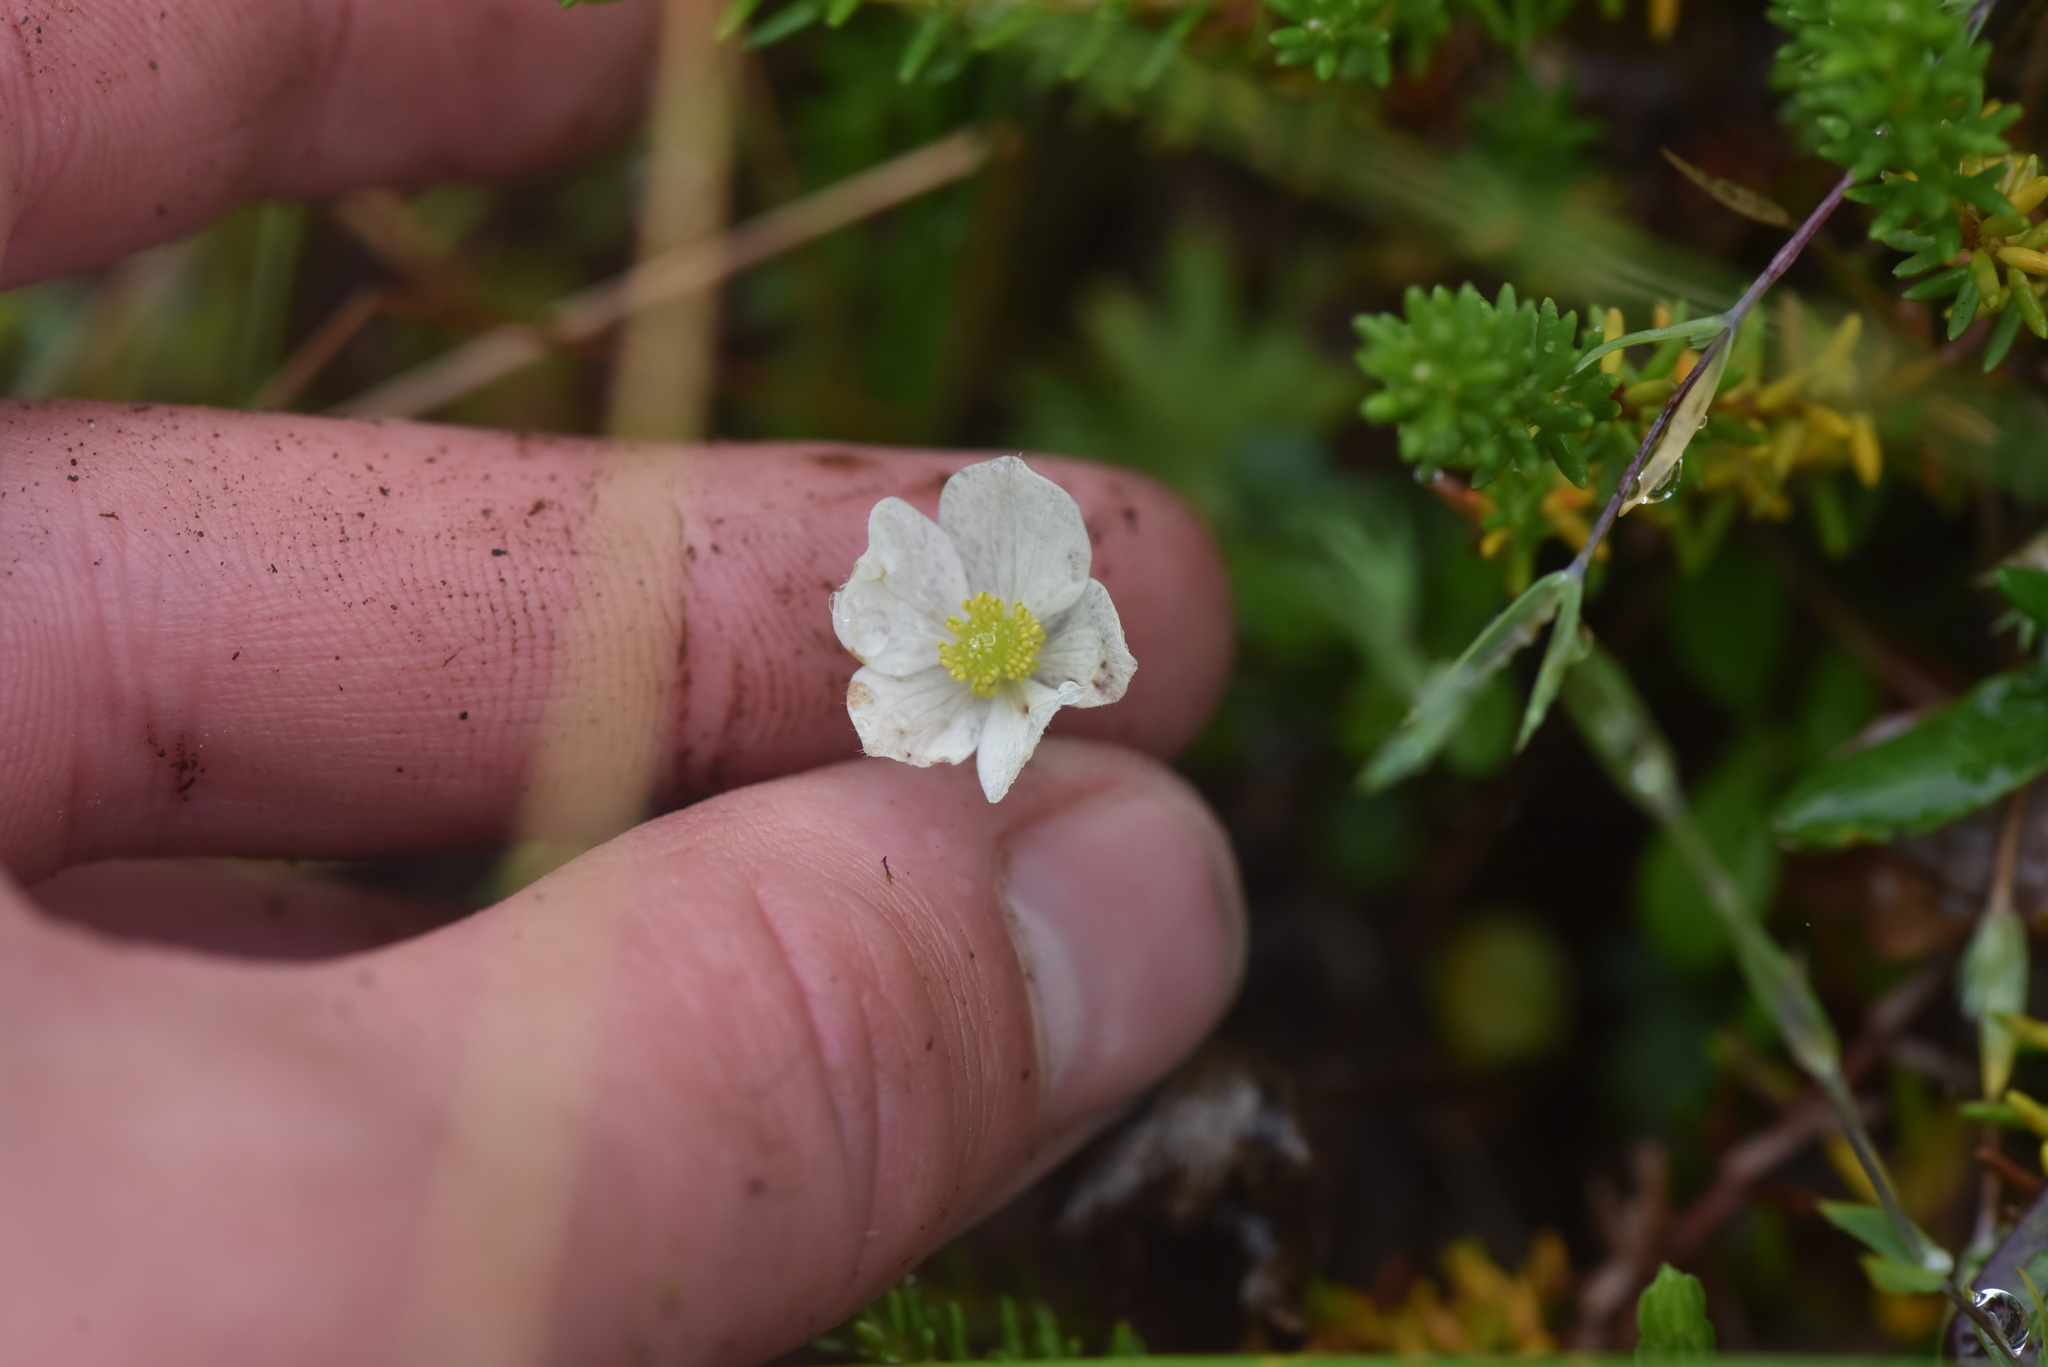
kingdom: Plantae
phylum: Tracheophyta
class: Magnoliopsida
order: Ranunculales
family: Ranunculaceae
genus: Anemone
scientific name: Anemone parviflora
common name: Northern anemone
